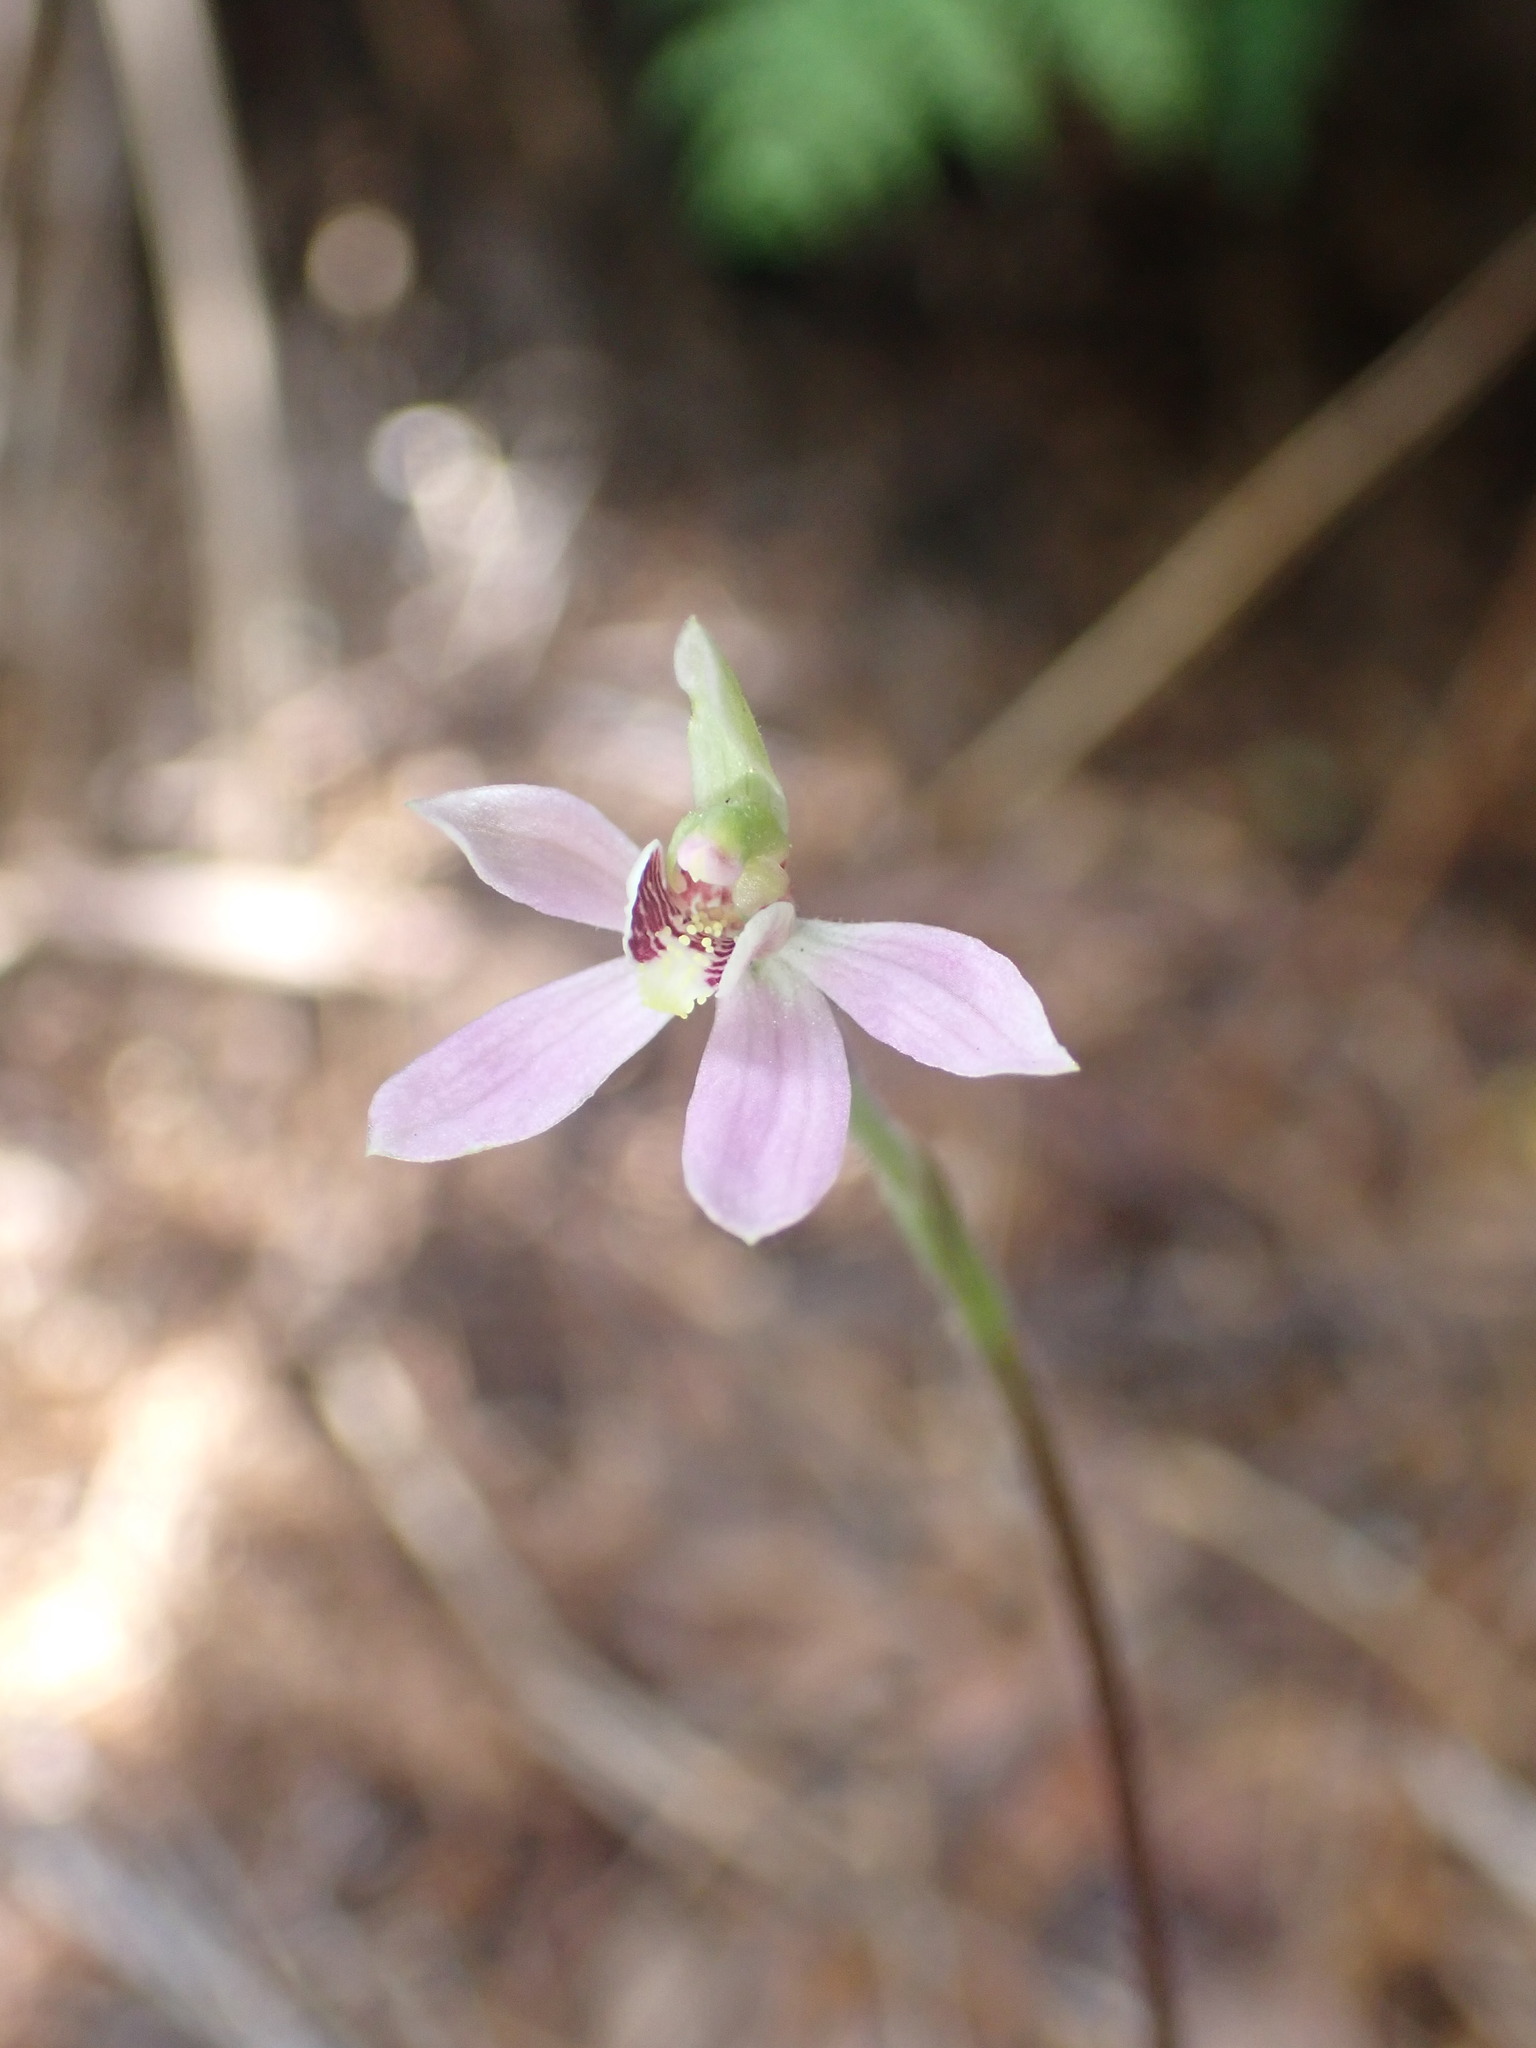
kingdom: Plantae
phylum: Tracheophyta
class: Liliopsida
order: Asparagales
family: Orchidaceae
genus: Caladenia
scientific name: Caladenia variegata
